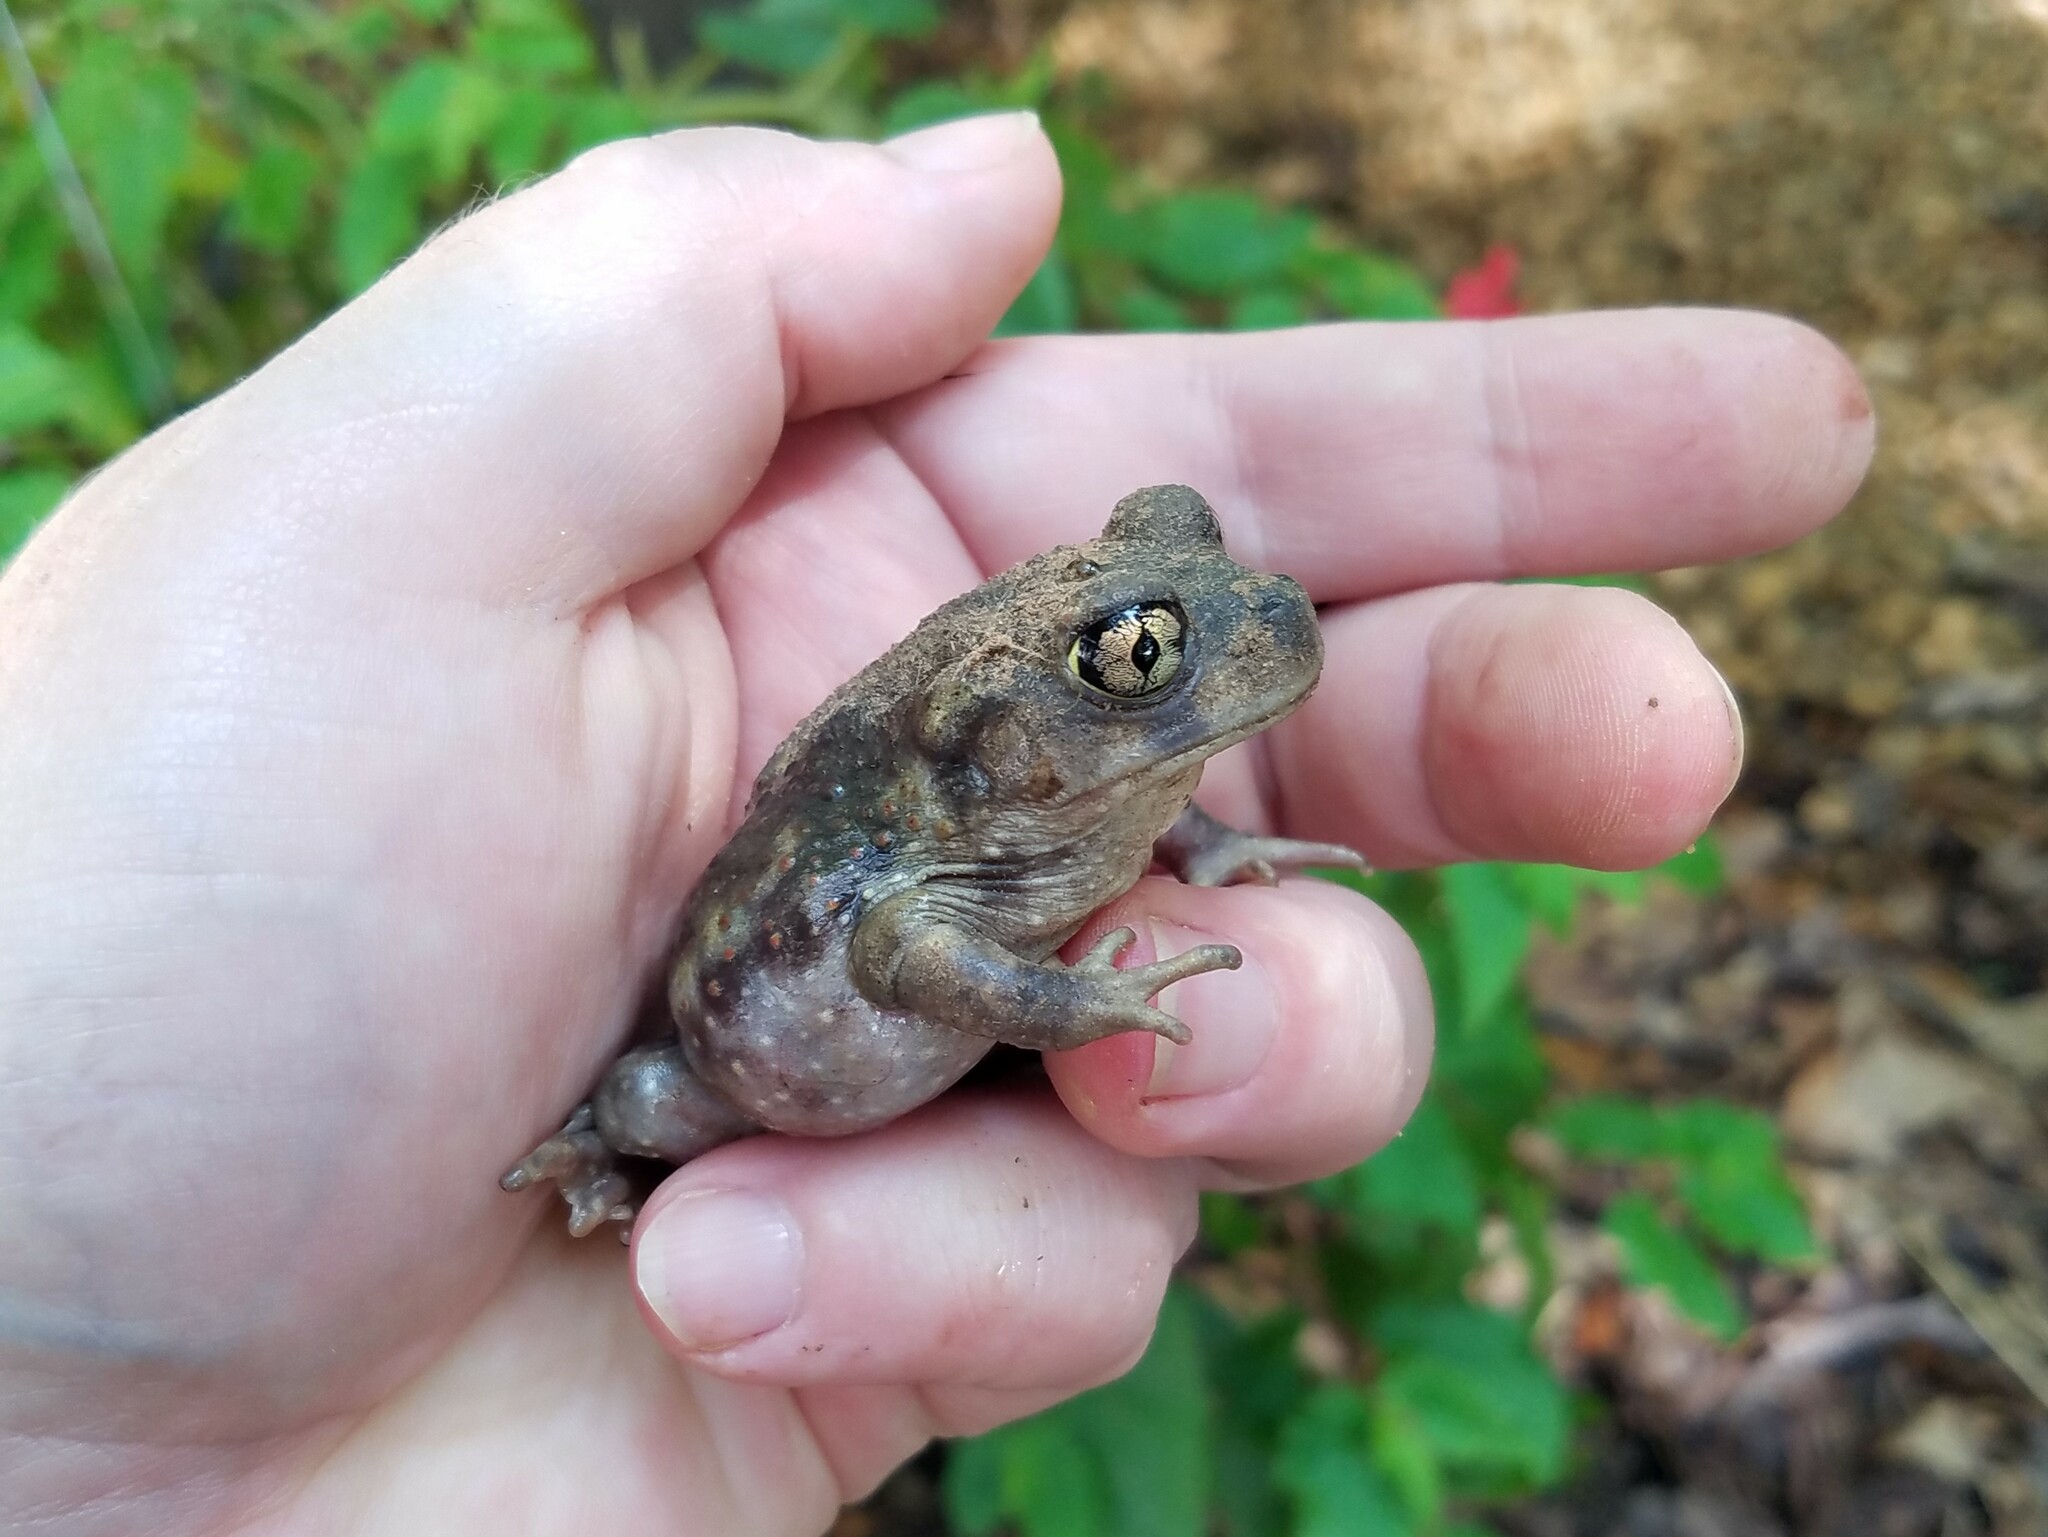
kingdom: Animalia
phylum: Chordata
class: Amphibia
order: Anura
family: Scaphiopodidae
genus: Scaphiopus
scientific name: Scaphiopus holbrookii
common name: Eastern spadefoot toad
